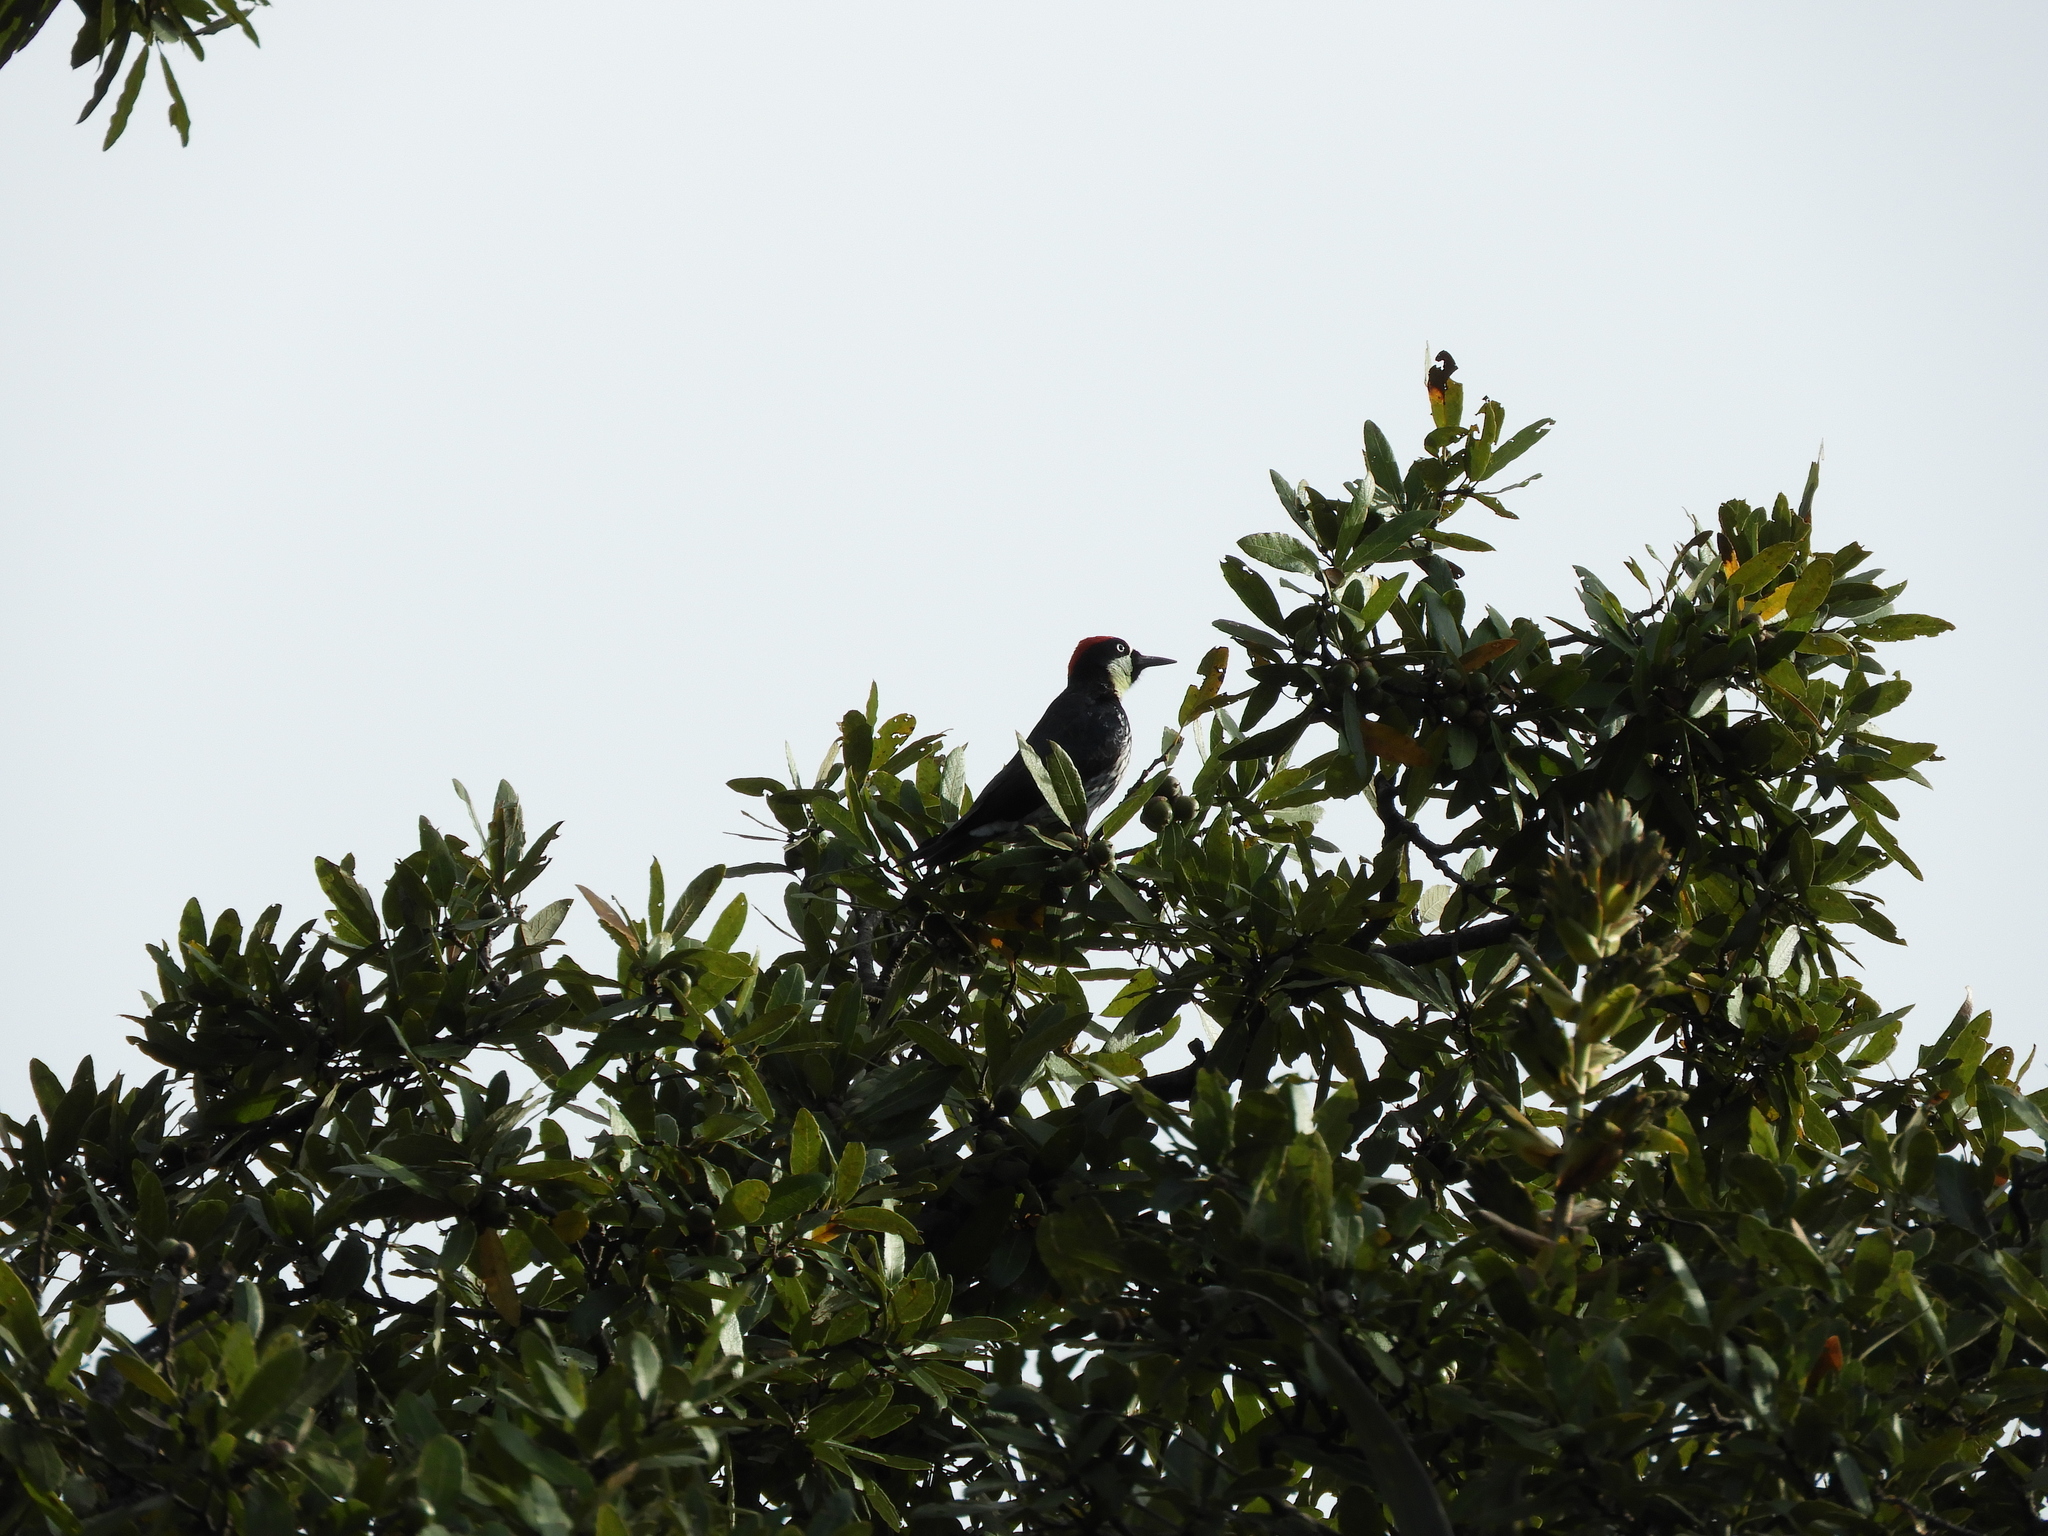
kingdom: Animalia
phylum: Chordata
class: Aves
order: Piciformes
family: Picidae
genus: Melanerpes
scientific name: Melanerpes formicivorus
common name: Acorn woodpecker
